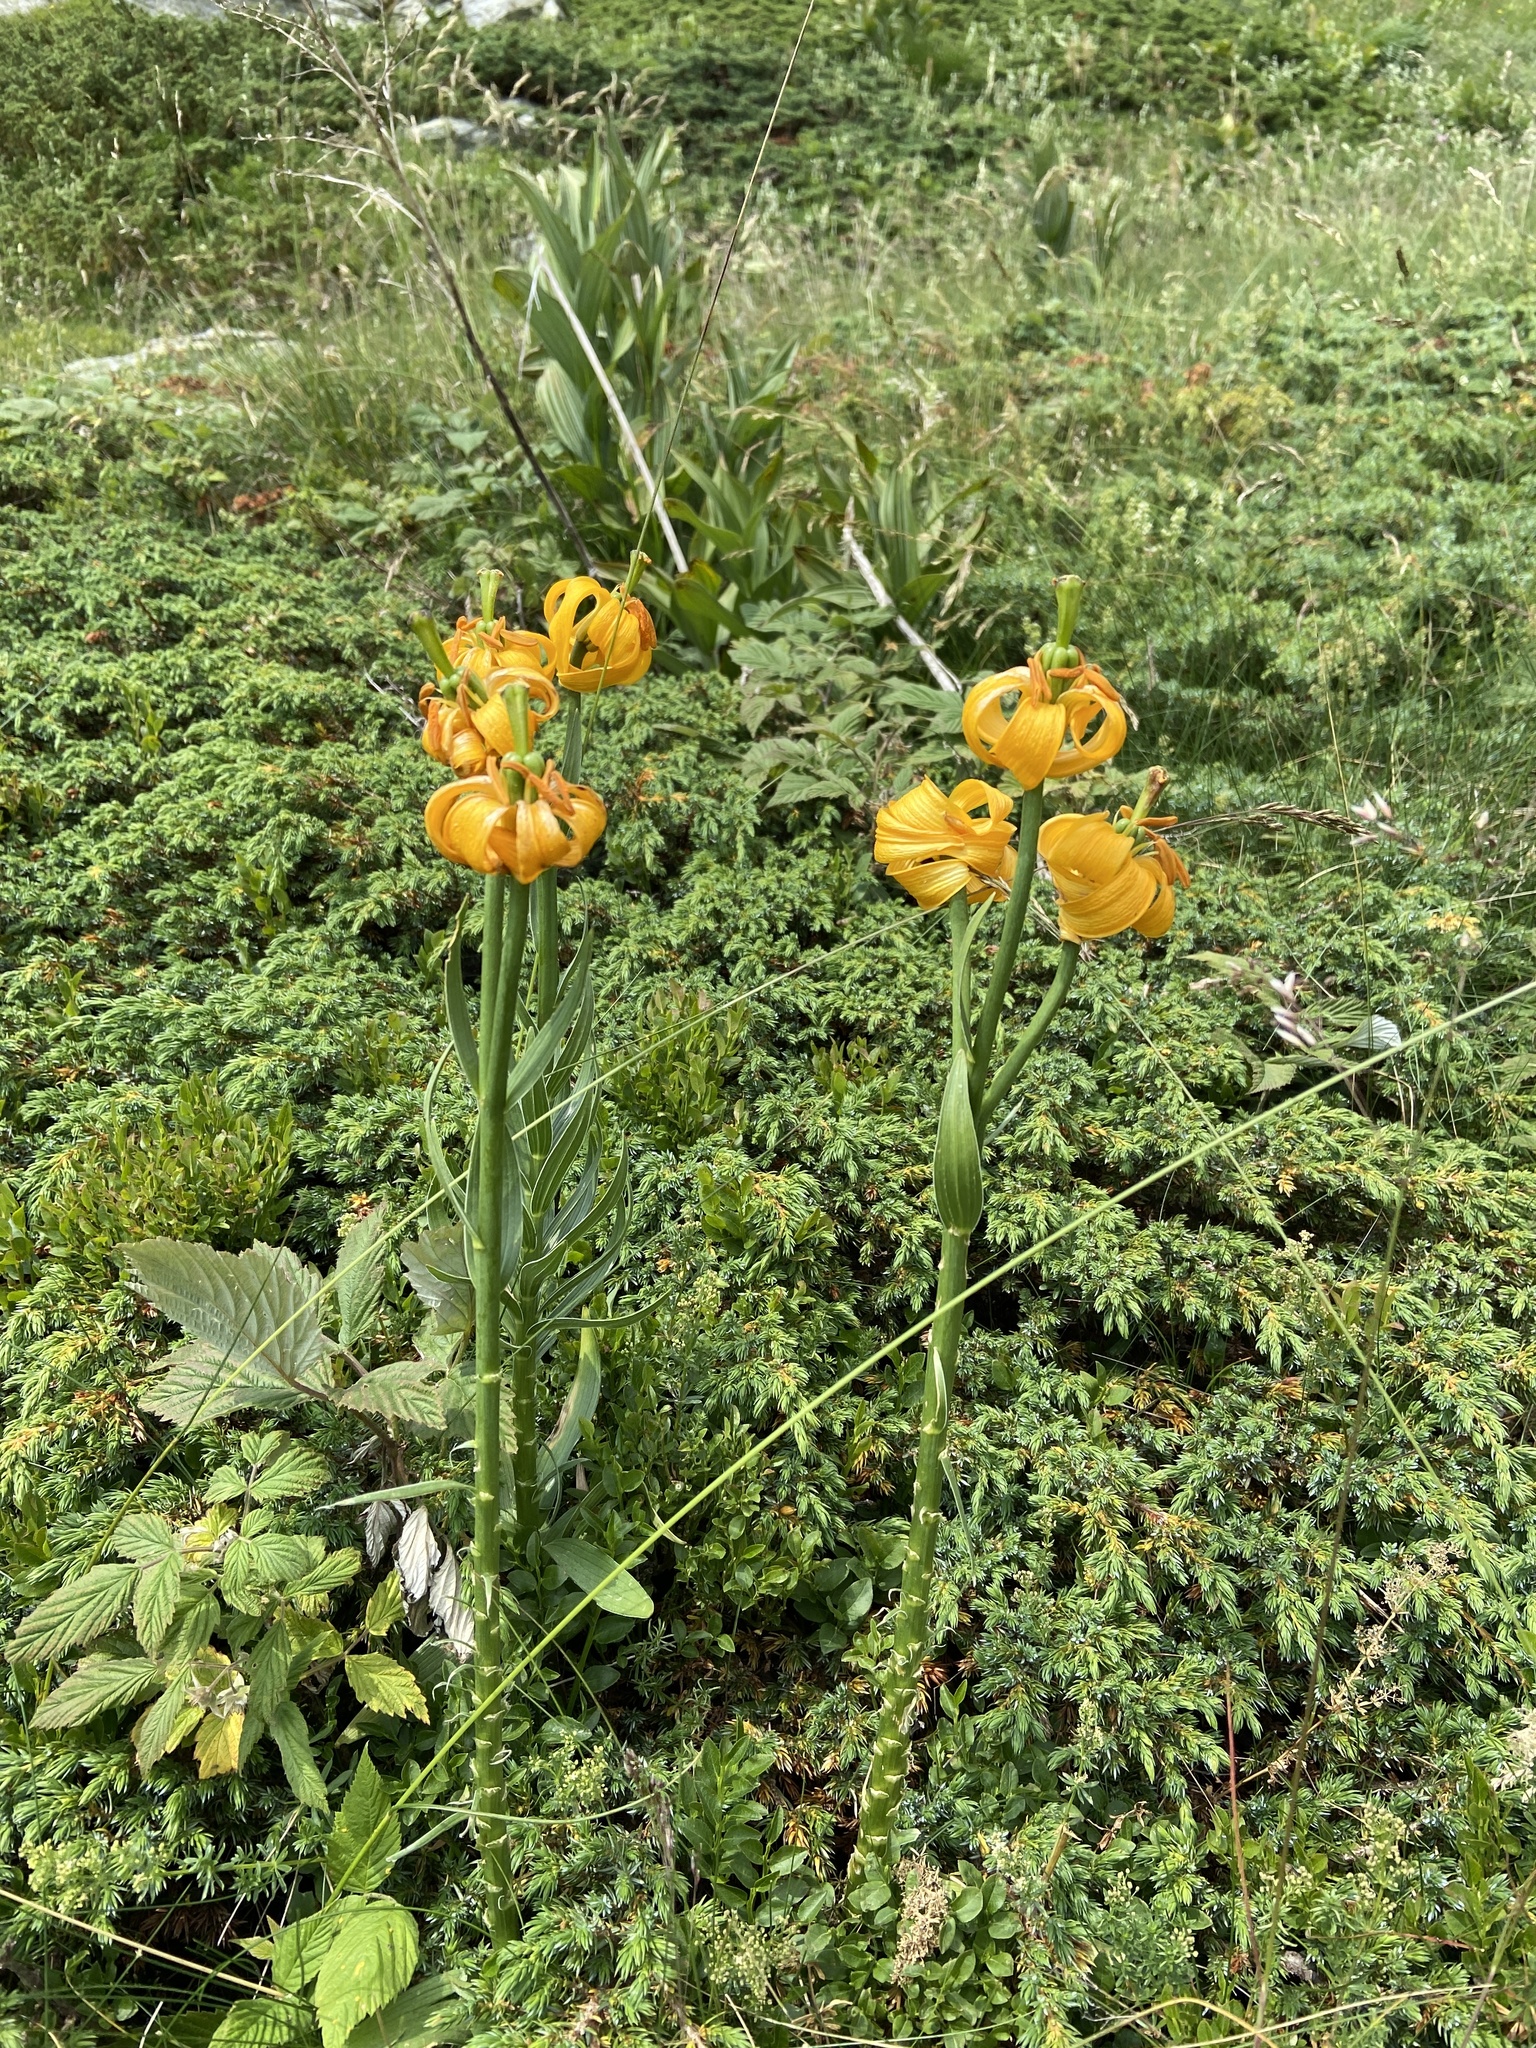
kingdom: Plantae
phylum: Tracheophyta
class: Liliopsida
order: Liliales
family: Liliaceae
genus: Lilium
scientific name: Lilium albanicum
